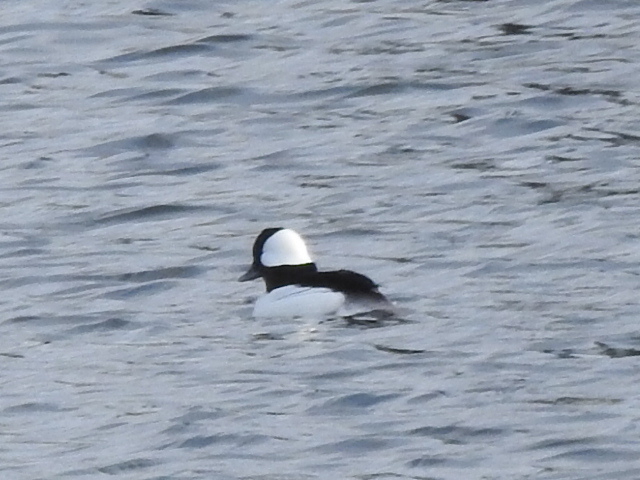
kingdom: Animalia
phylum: Chordata
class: Aves
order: Anseriformes
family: Anatidae
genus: Bucephala
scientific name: Bucephala albeola
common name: Bufflehead
